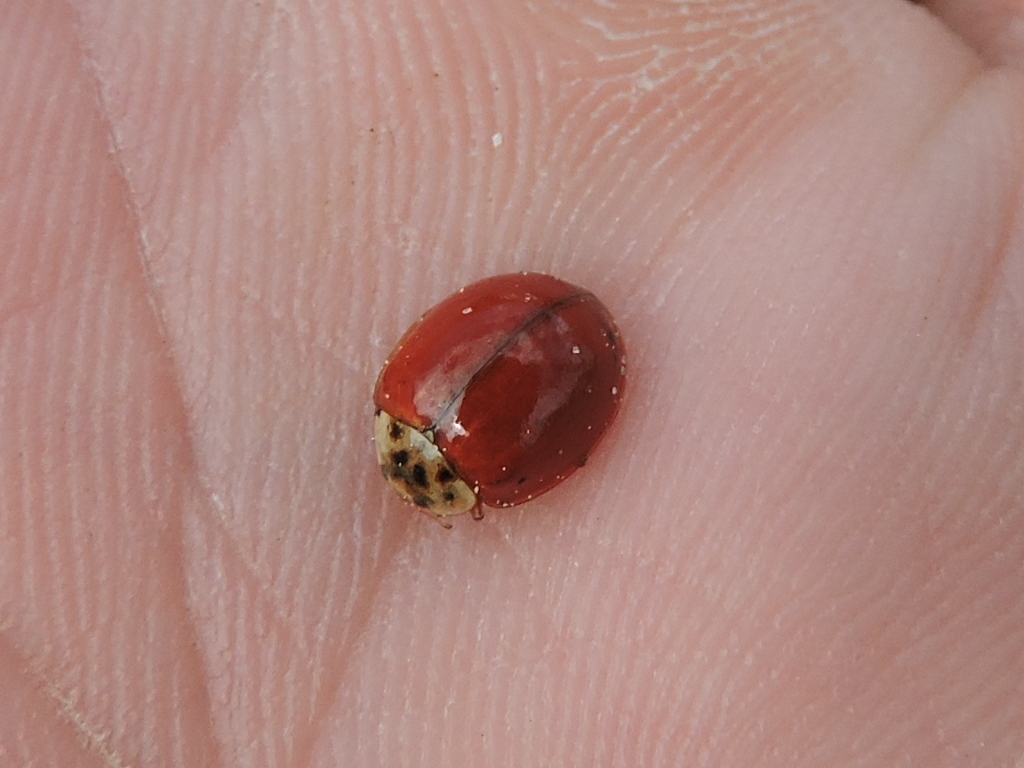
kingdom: Animalia
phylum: Arthropoda
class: Insecta
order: Coleoptera
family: Coccinellidae
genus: Harmonia
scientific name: Harmonia axyridis
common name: Harlequin ladybird
